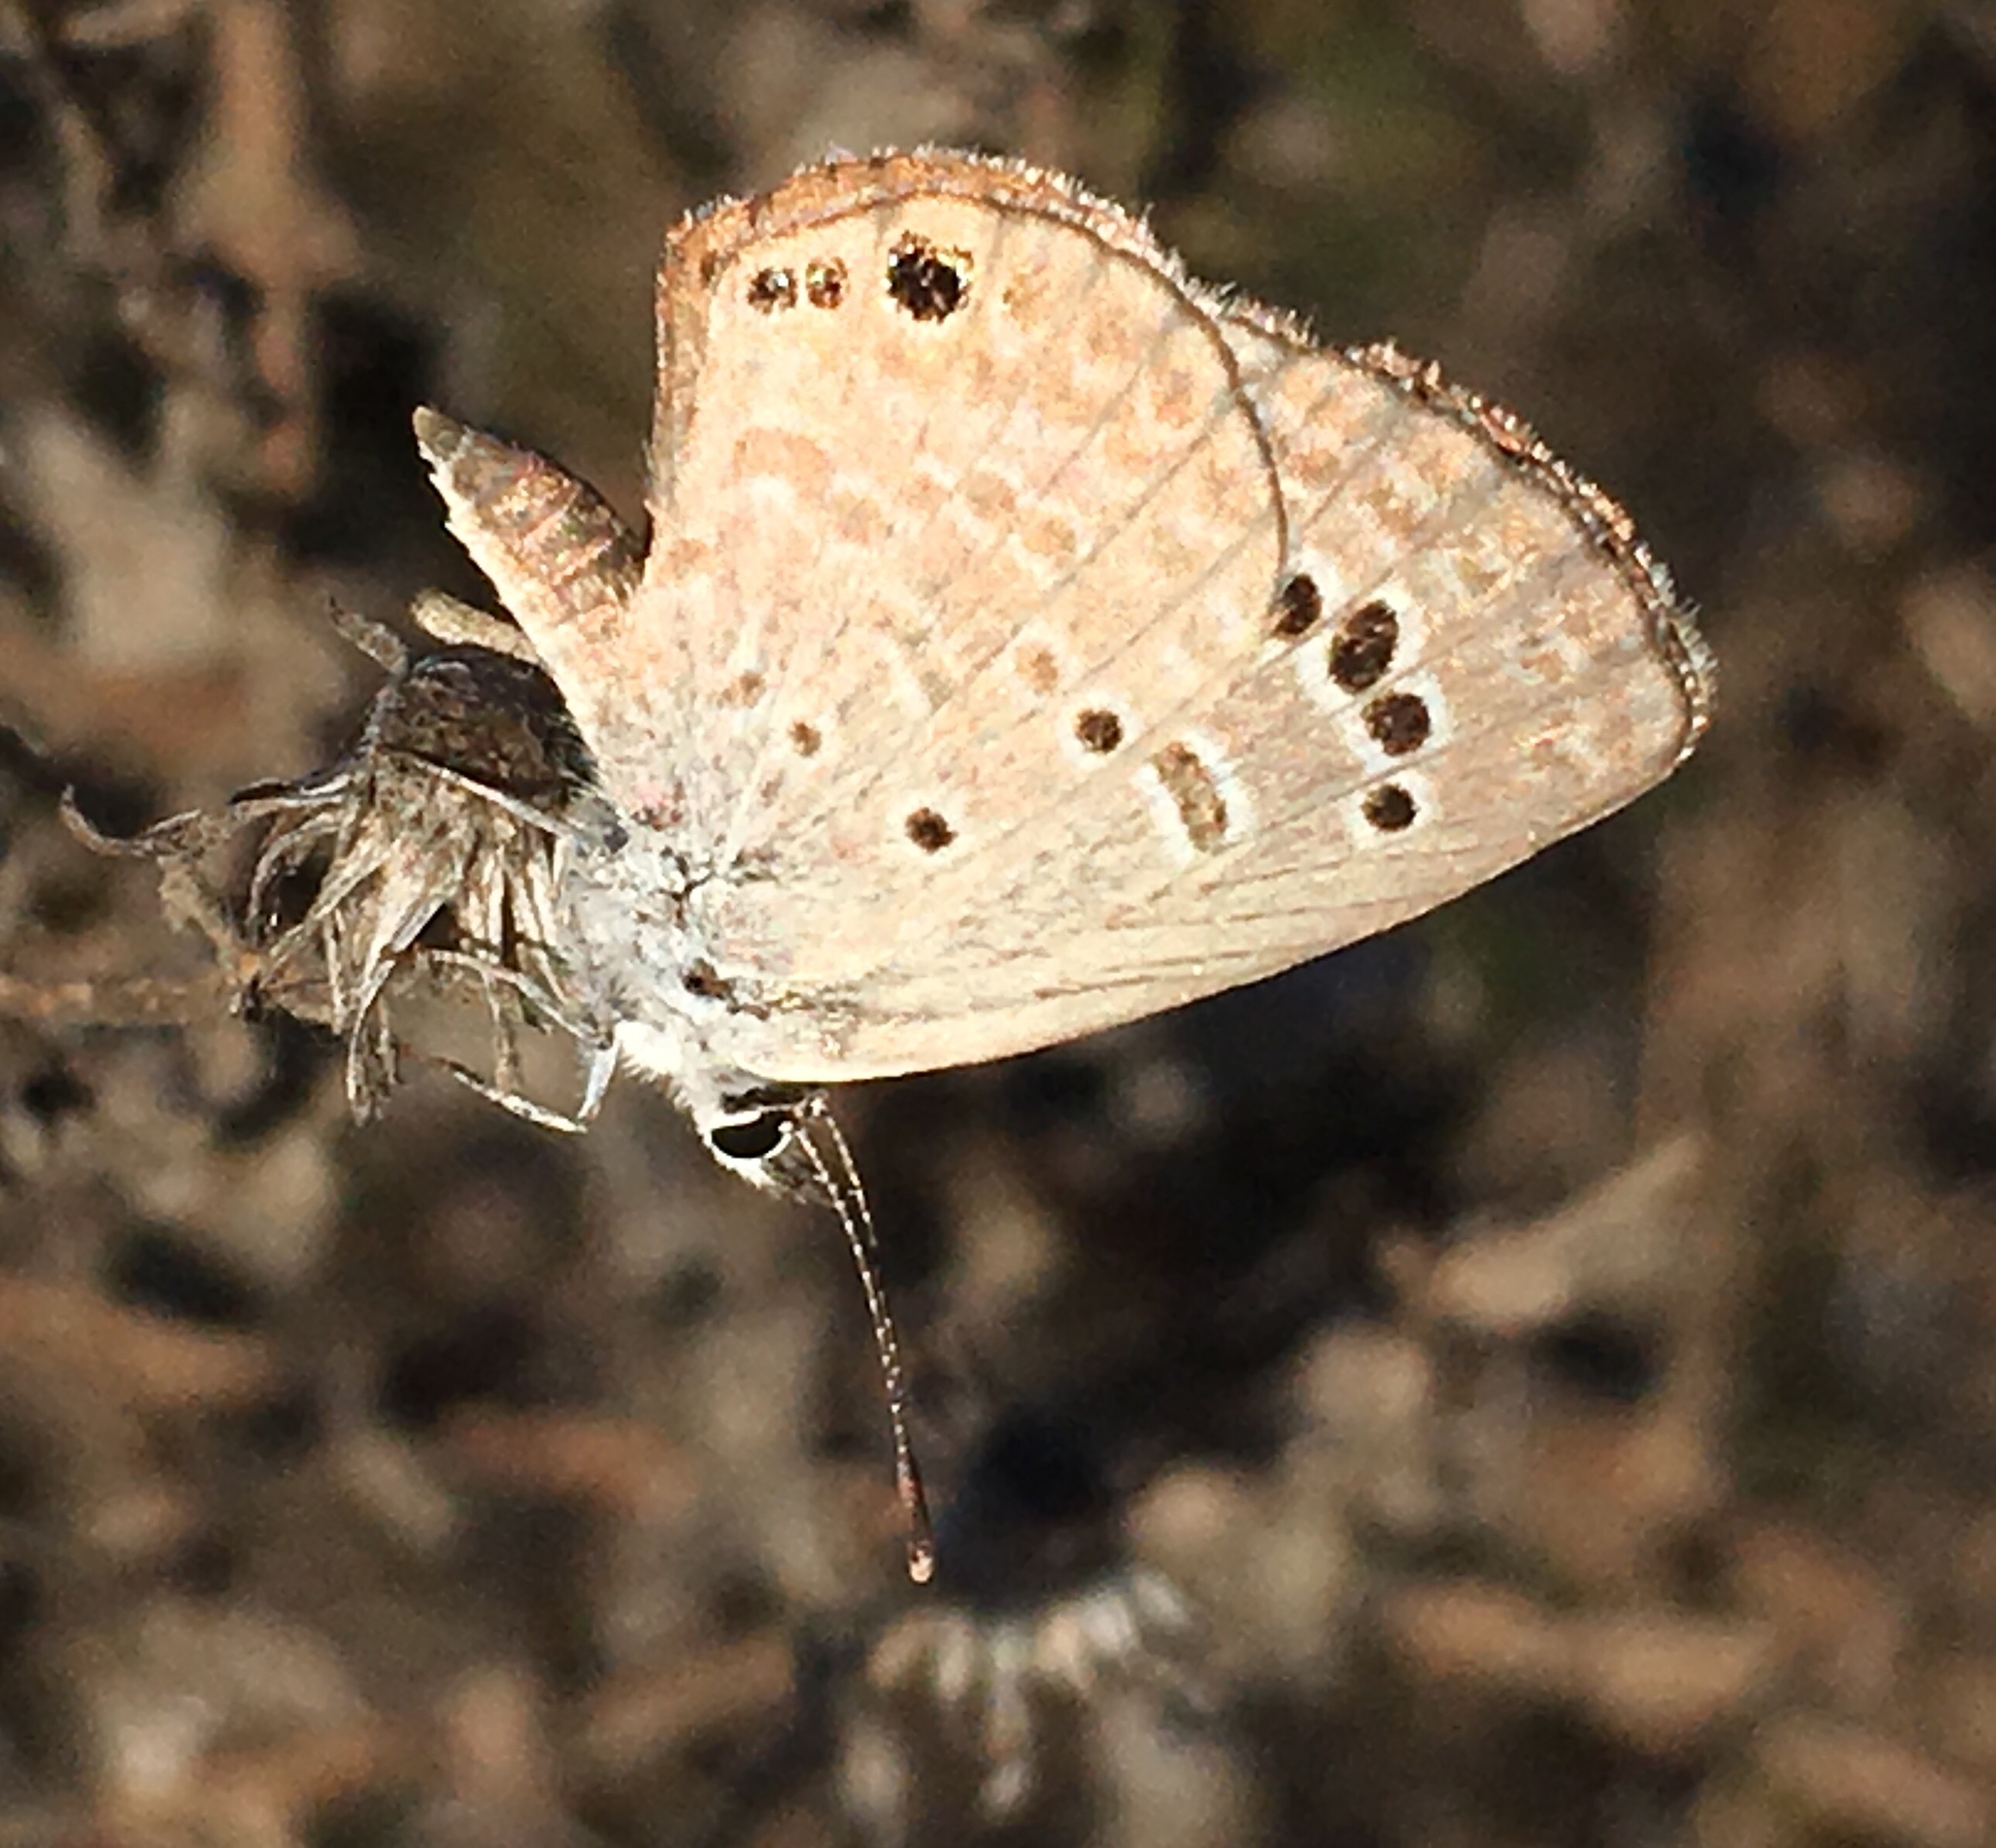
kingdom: Animalia
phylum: Arthropoda
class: Insecta
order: Lepidoptera
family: Lycaenidae
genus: Echinargus
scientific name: Echinargus isola
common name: Reakirt's blue
